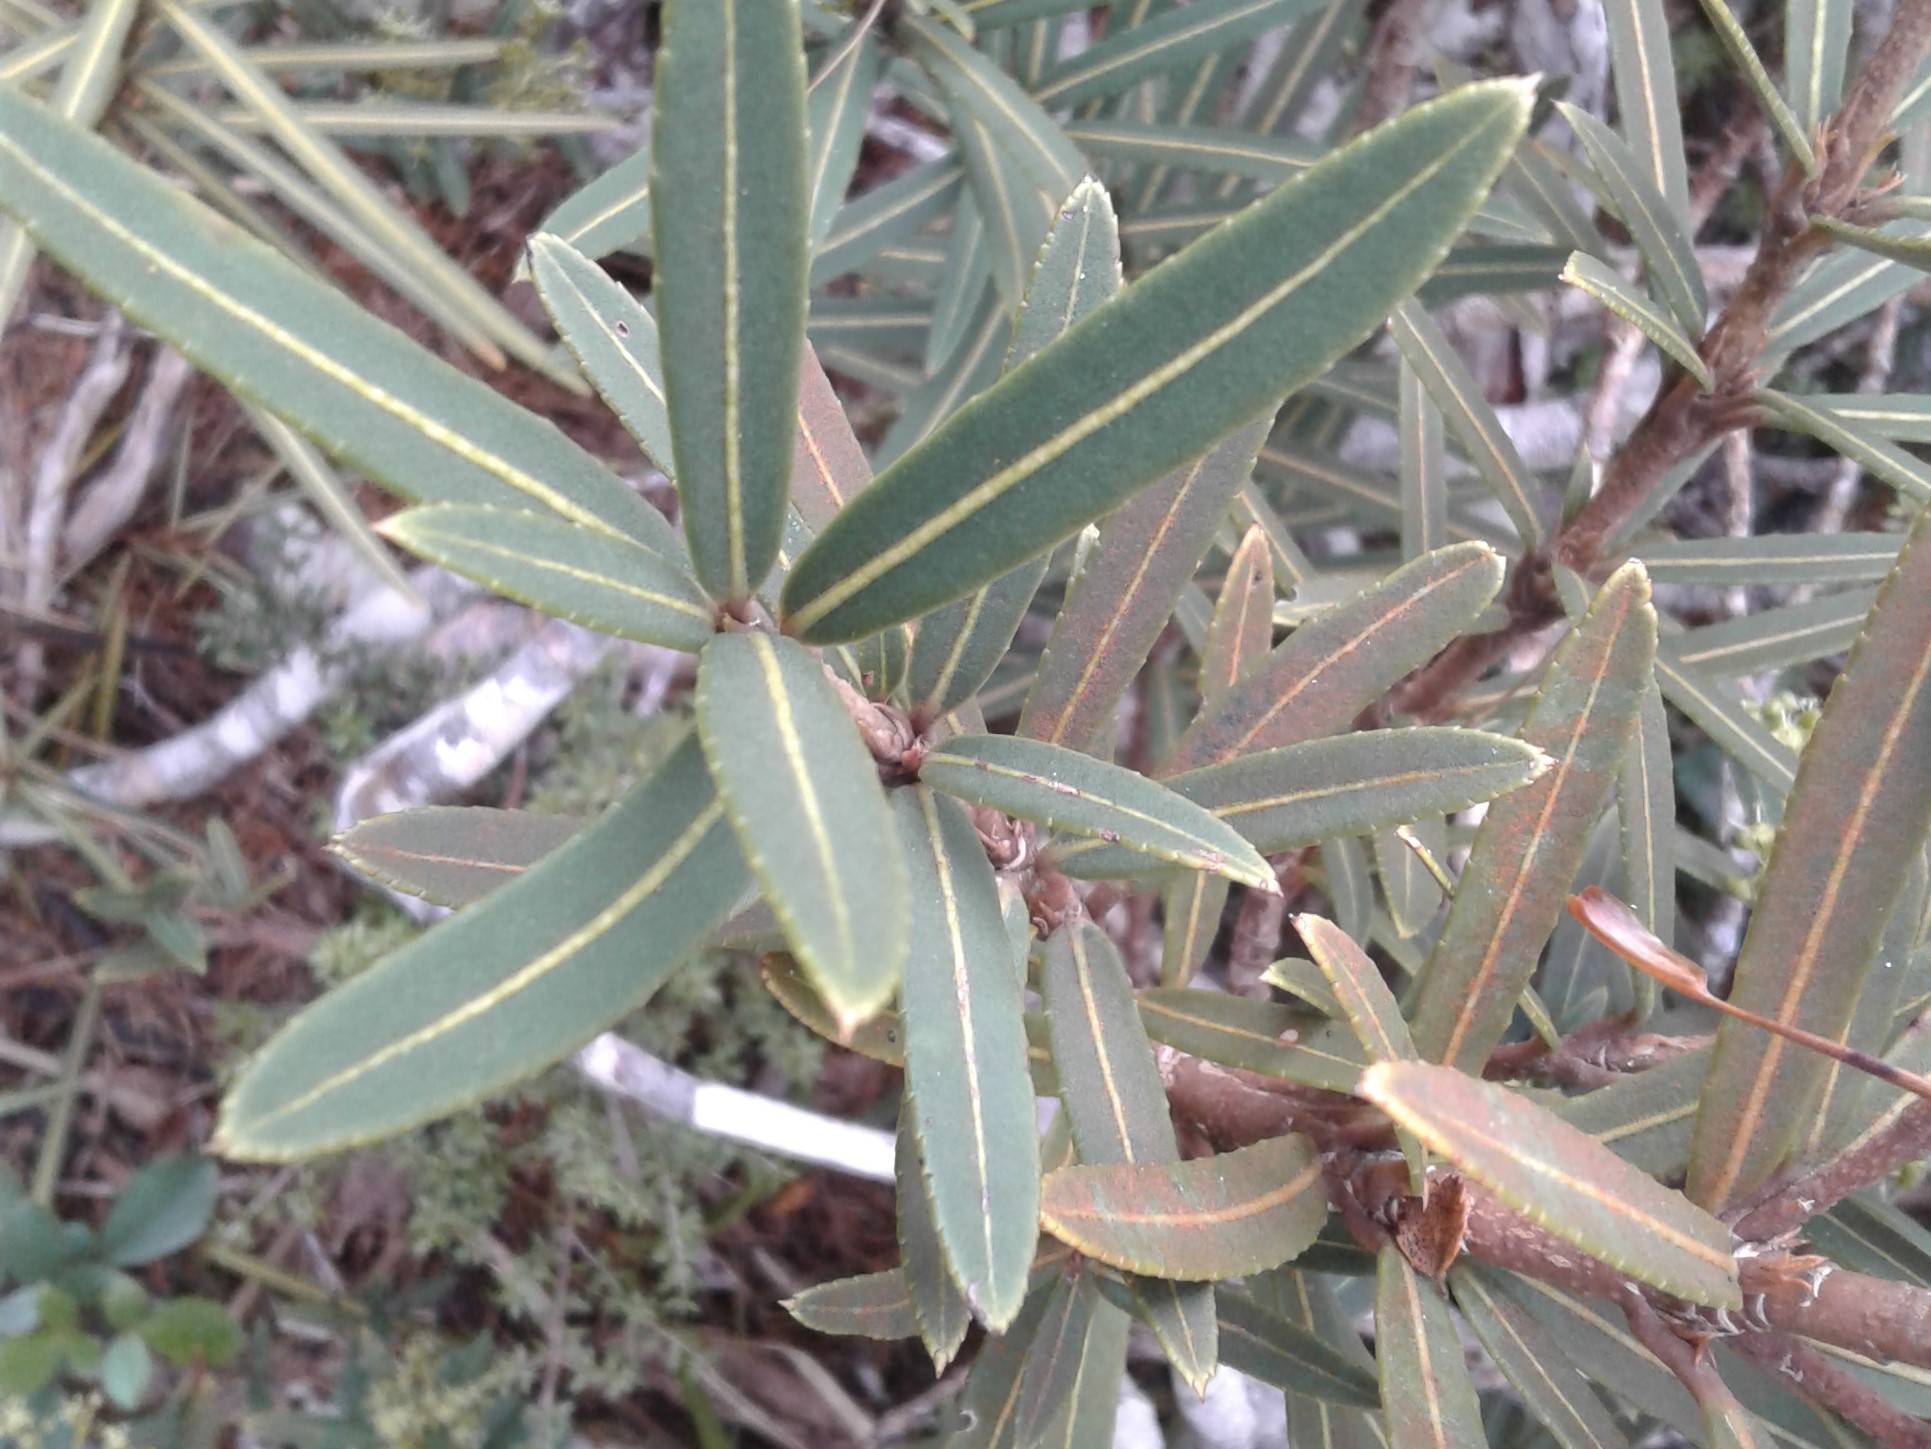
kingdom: Plantae
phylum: Tracheophyta
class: Magnoliopsida
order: Apiales
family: Araliaceae
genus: Pseudopanax
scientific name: Pseudopanax linearis
